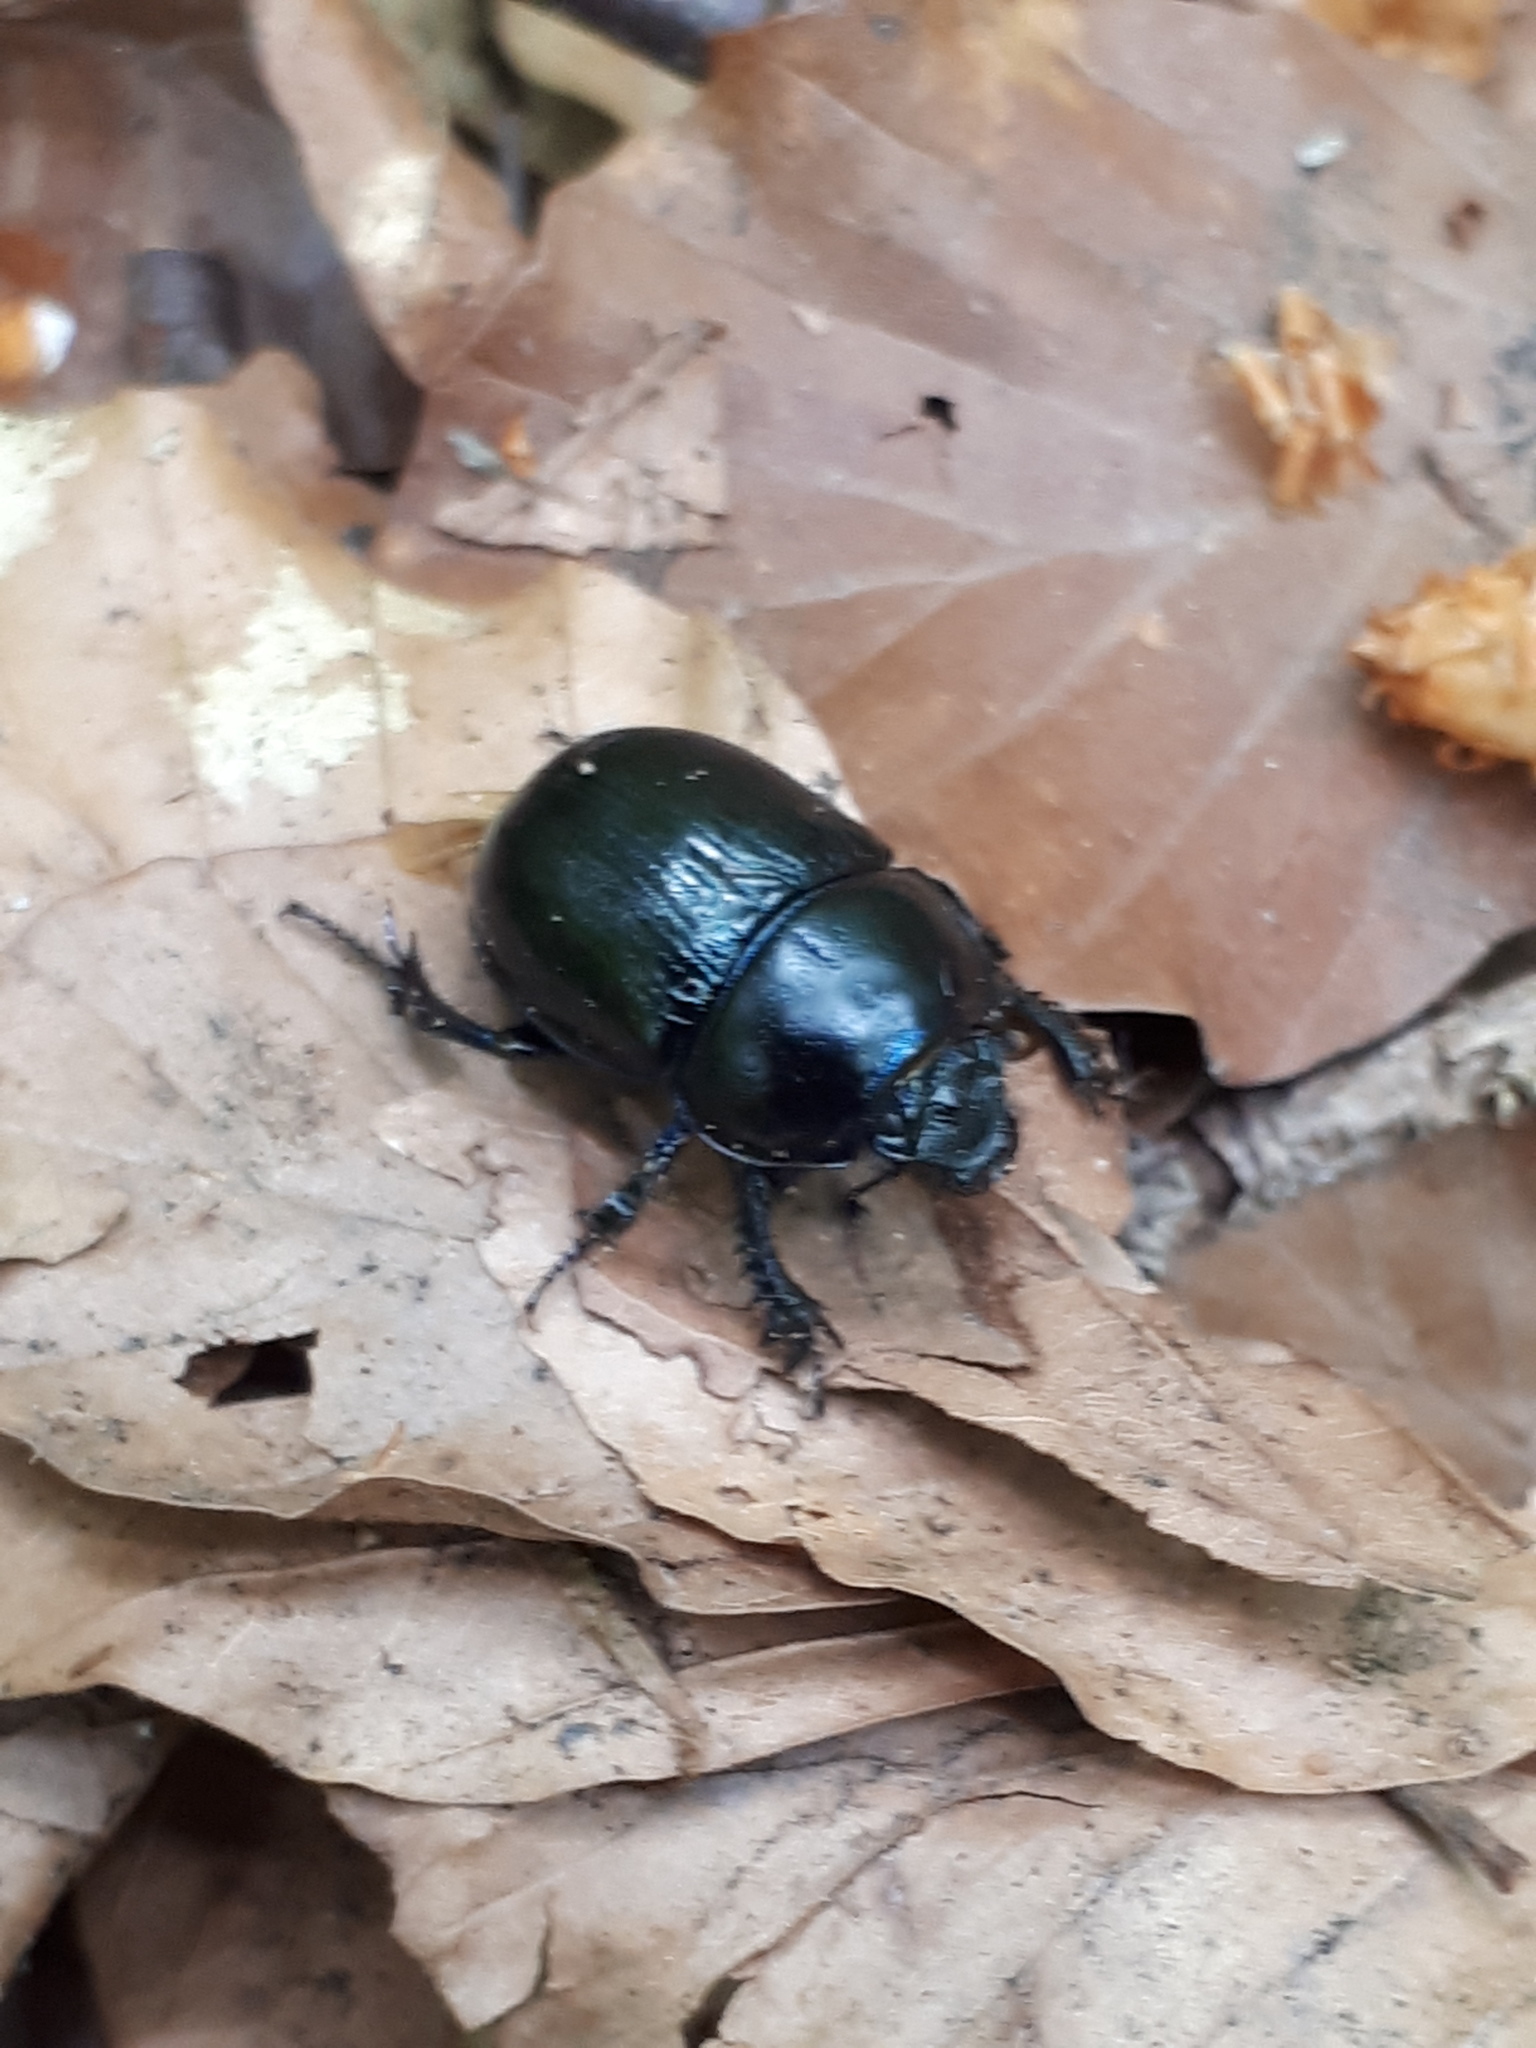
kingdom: Animalia
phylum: Arthropoda
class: Insecta
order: Coleoptera
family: Geotrupidae
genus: Anoplotrupes
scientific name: Anoplotrupes stercorosus
